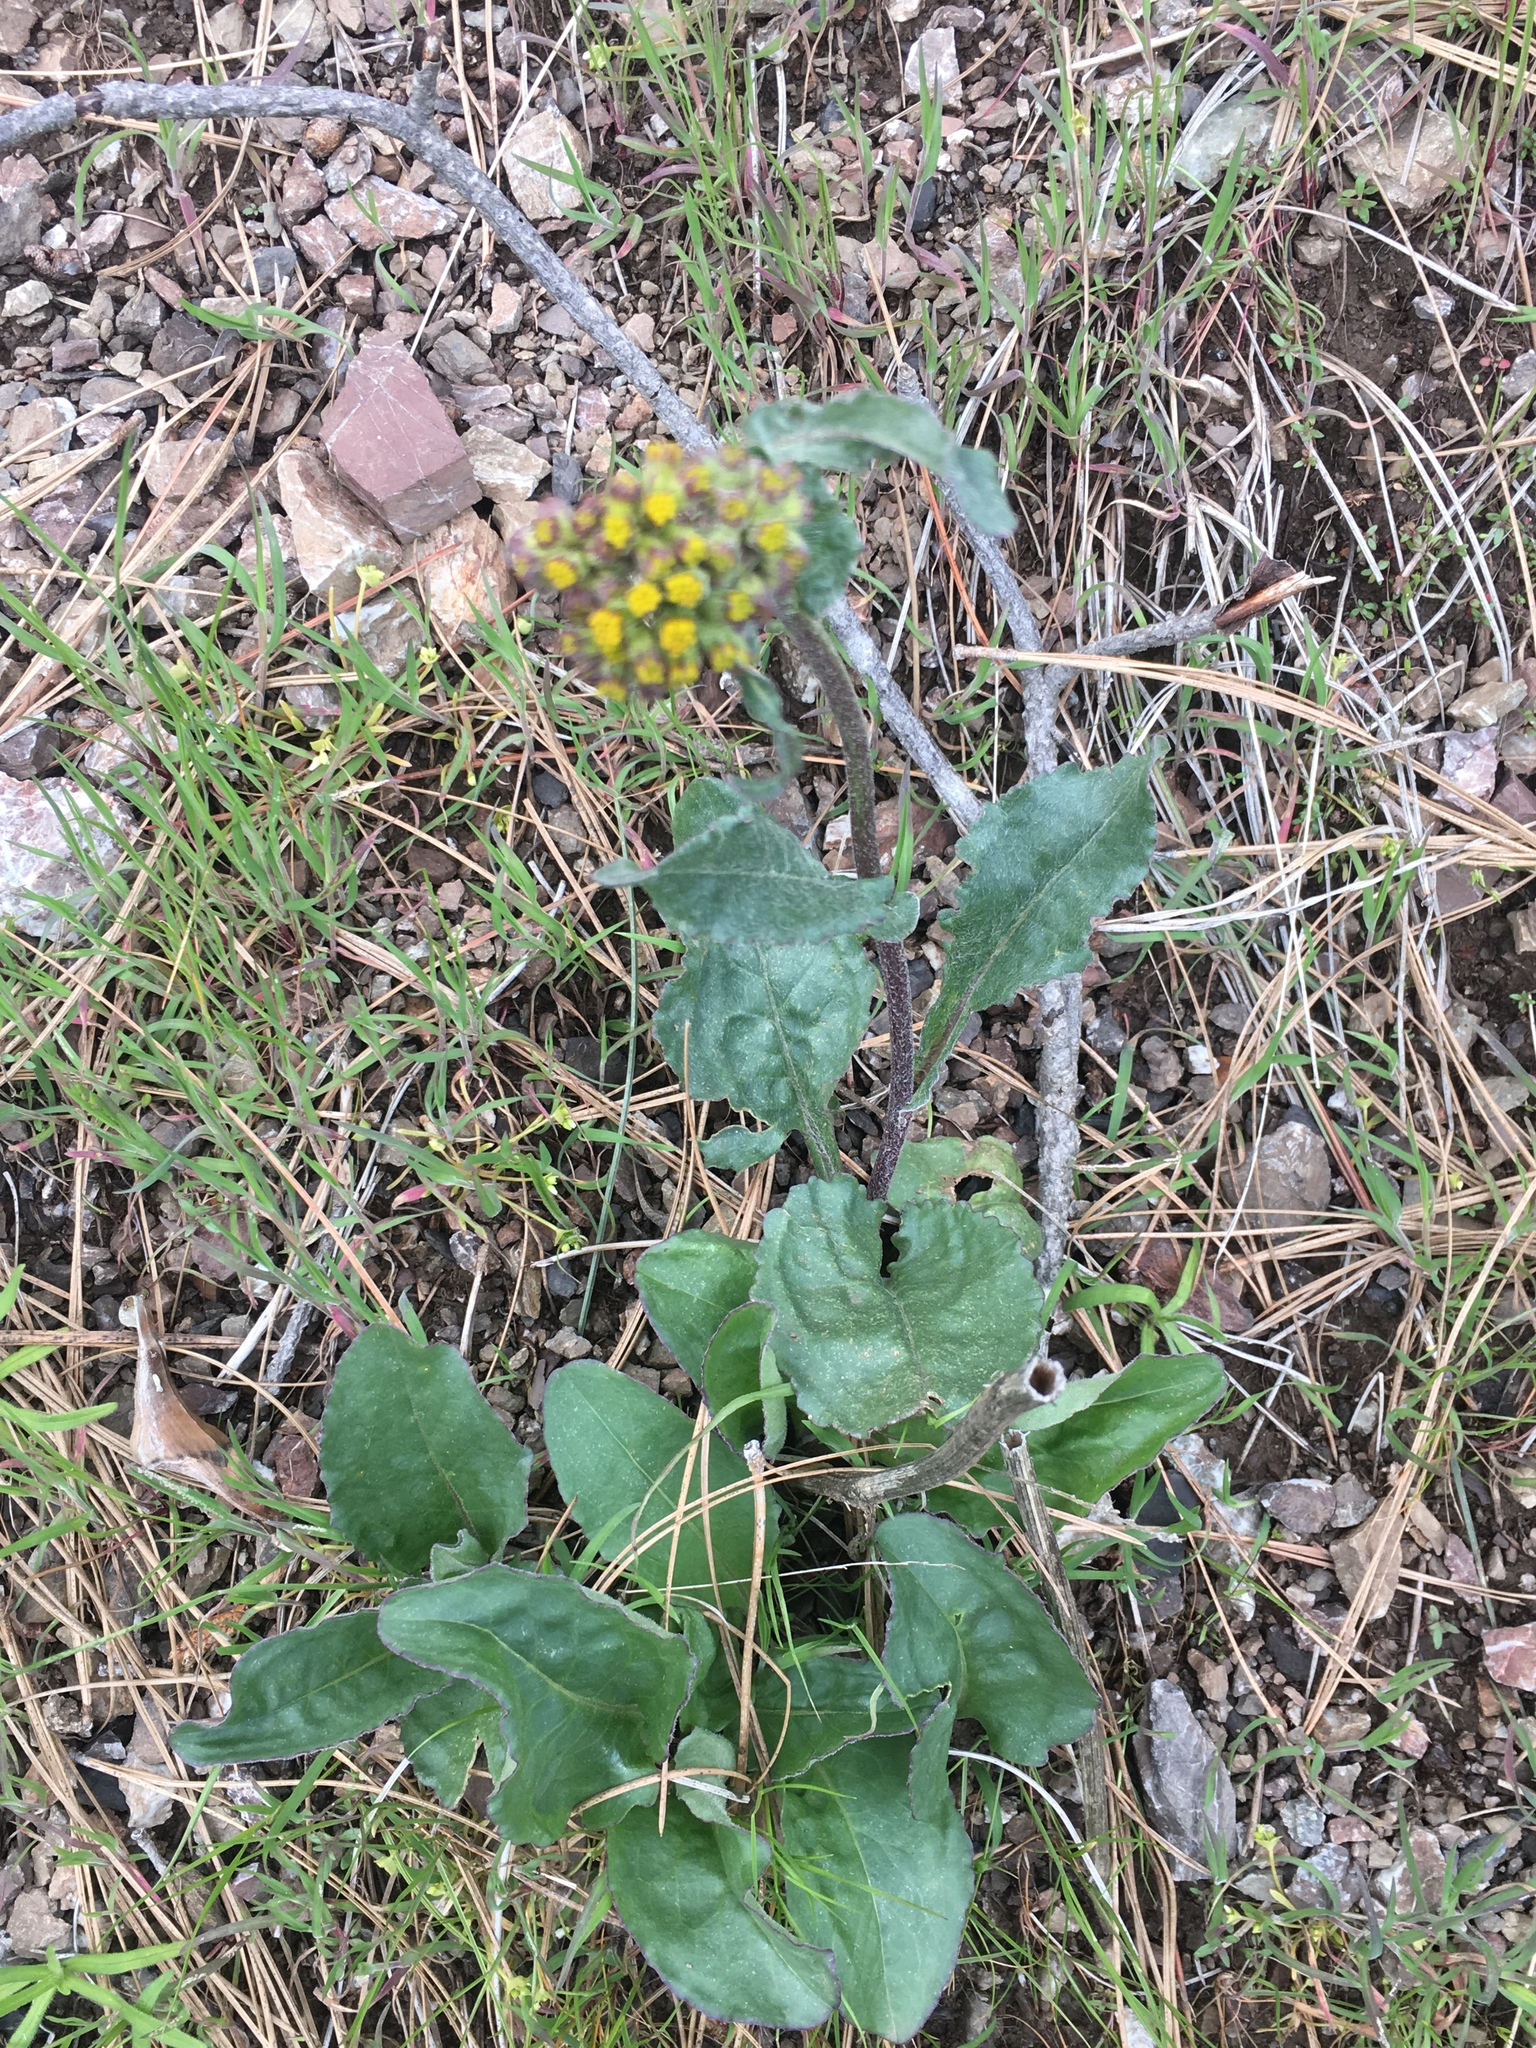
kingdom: Plantae
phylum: Tracheophyta
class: Magnoliopsida
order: Asterales
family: Asteraceae
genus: Senecio
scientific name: Senecio aronicoides
